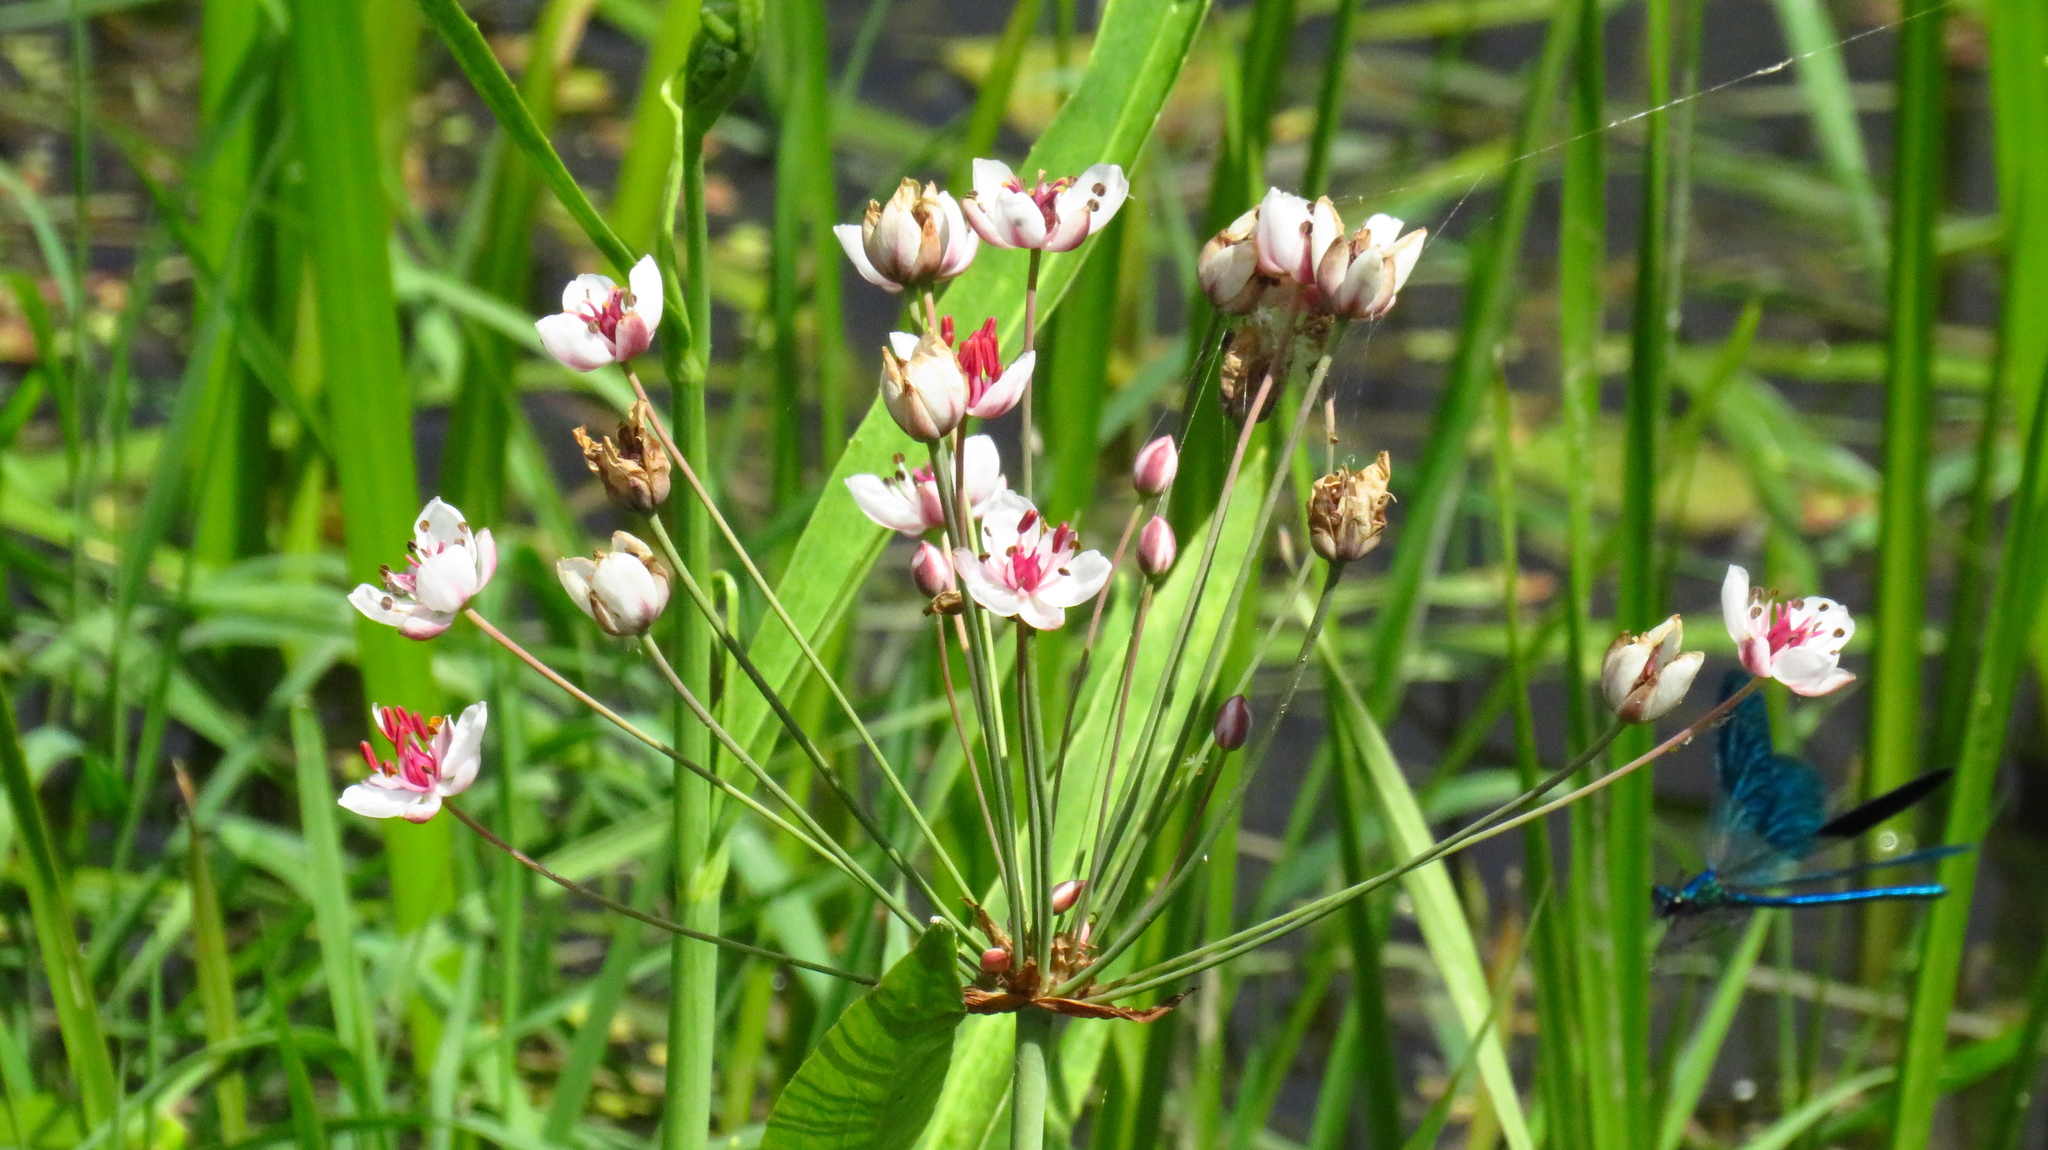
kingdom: Plantae
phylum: Tracheophyta
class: Liliopsida
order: Alismatales
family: Butomaceae
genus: Butomus
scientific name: Butomus umbellatus
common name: Flowering-rush
